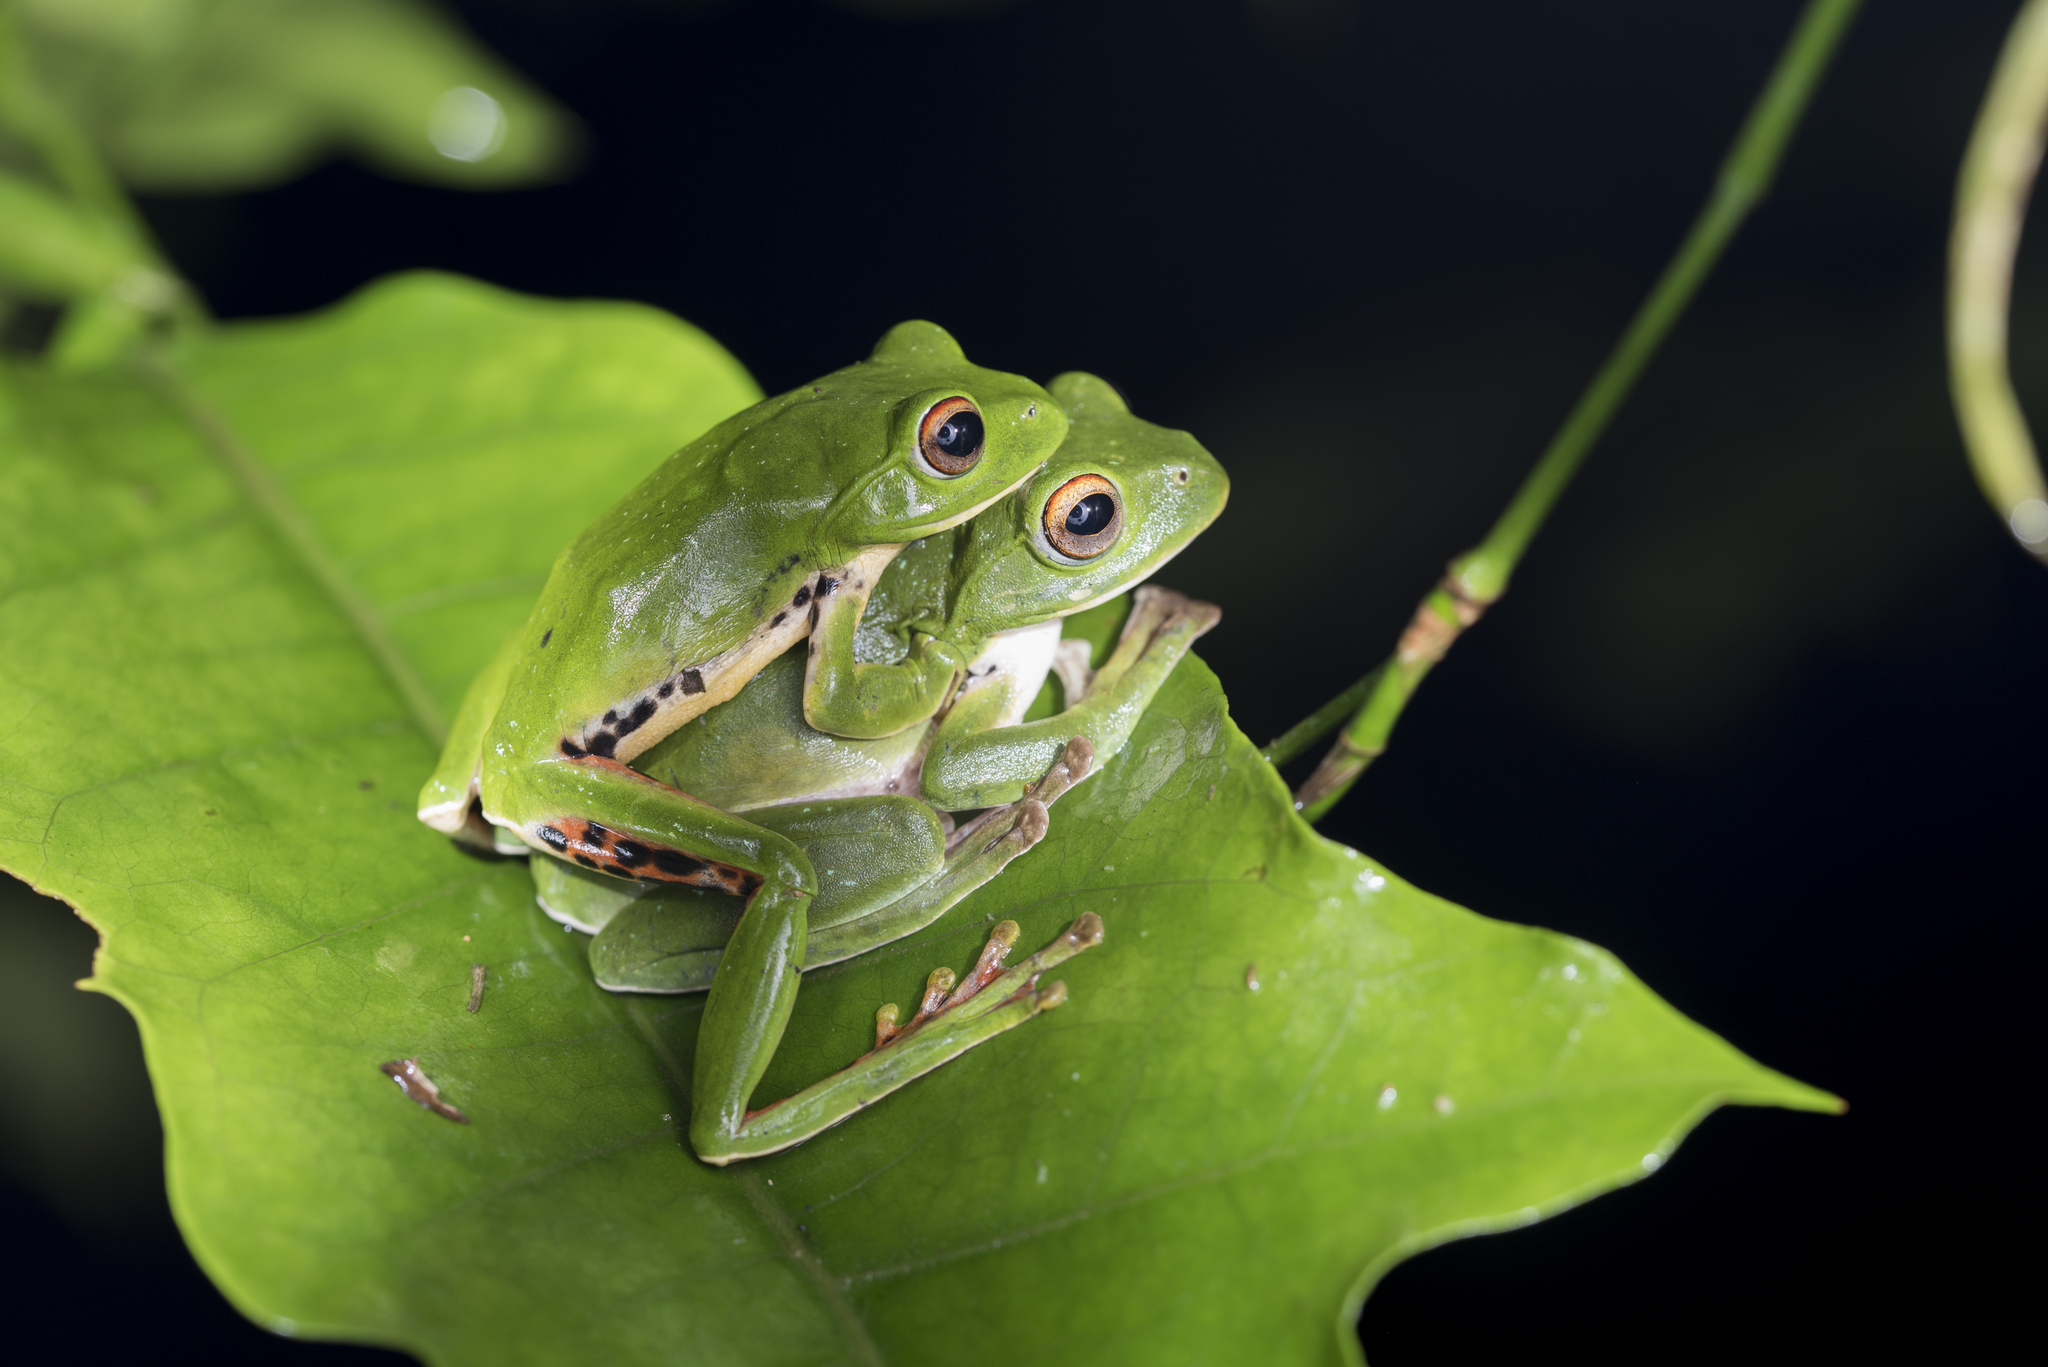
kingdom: Animalia
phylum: Chordata
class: Amphibia
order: Anura
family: Rhacophoridae
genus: Zhangixalus
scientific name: Zhangixalus moltrechti
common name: Moltrecht's treefrog
